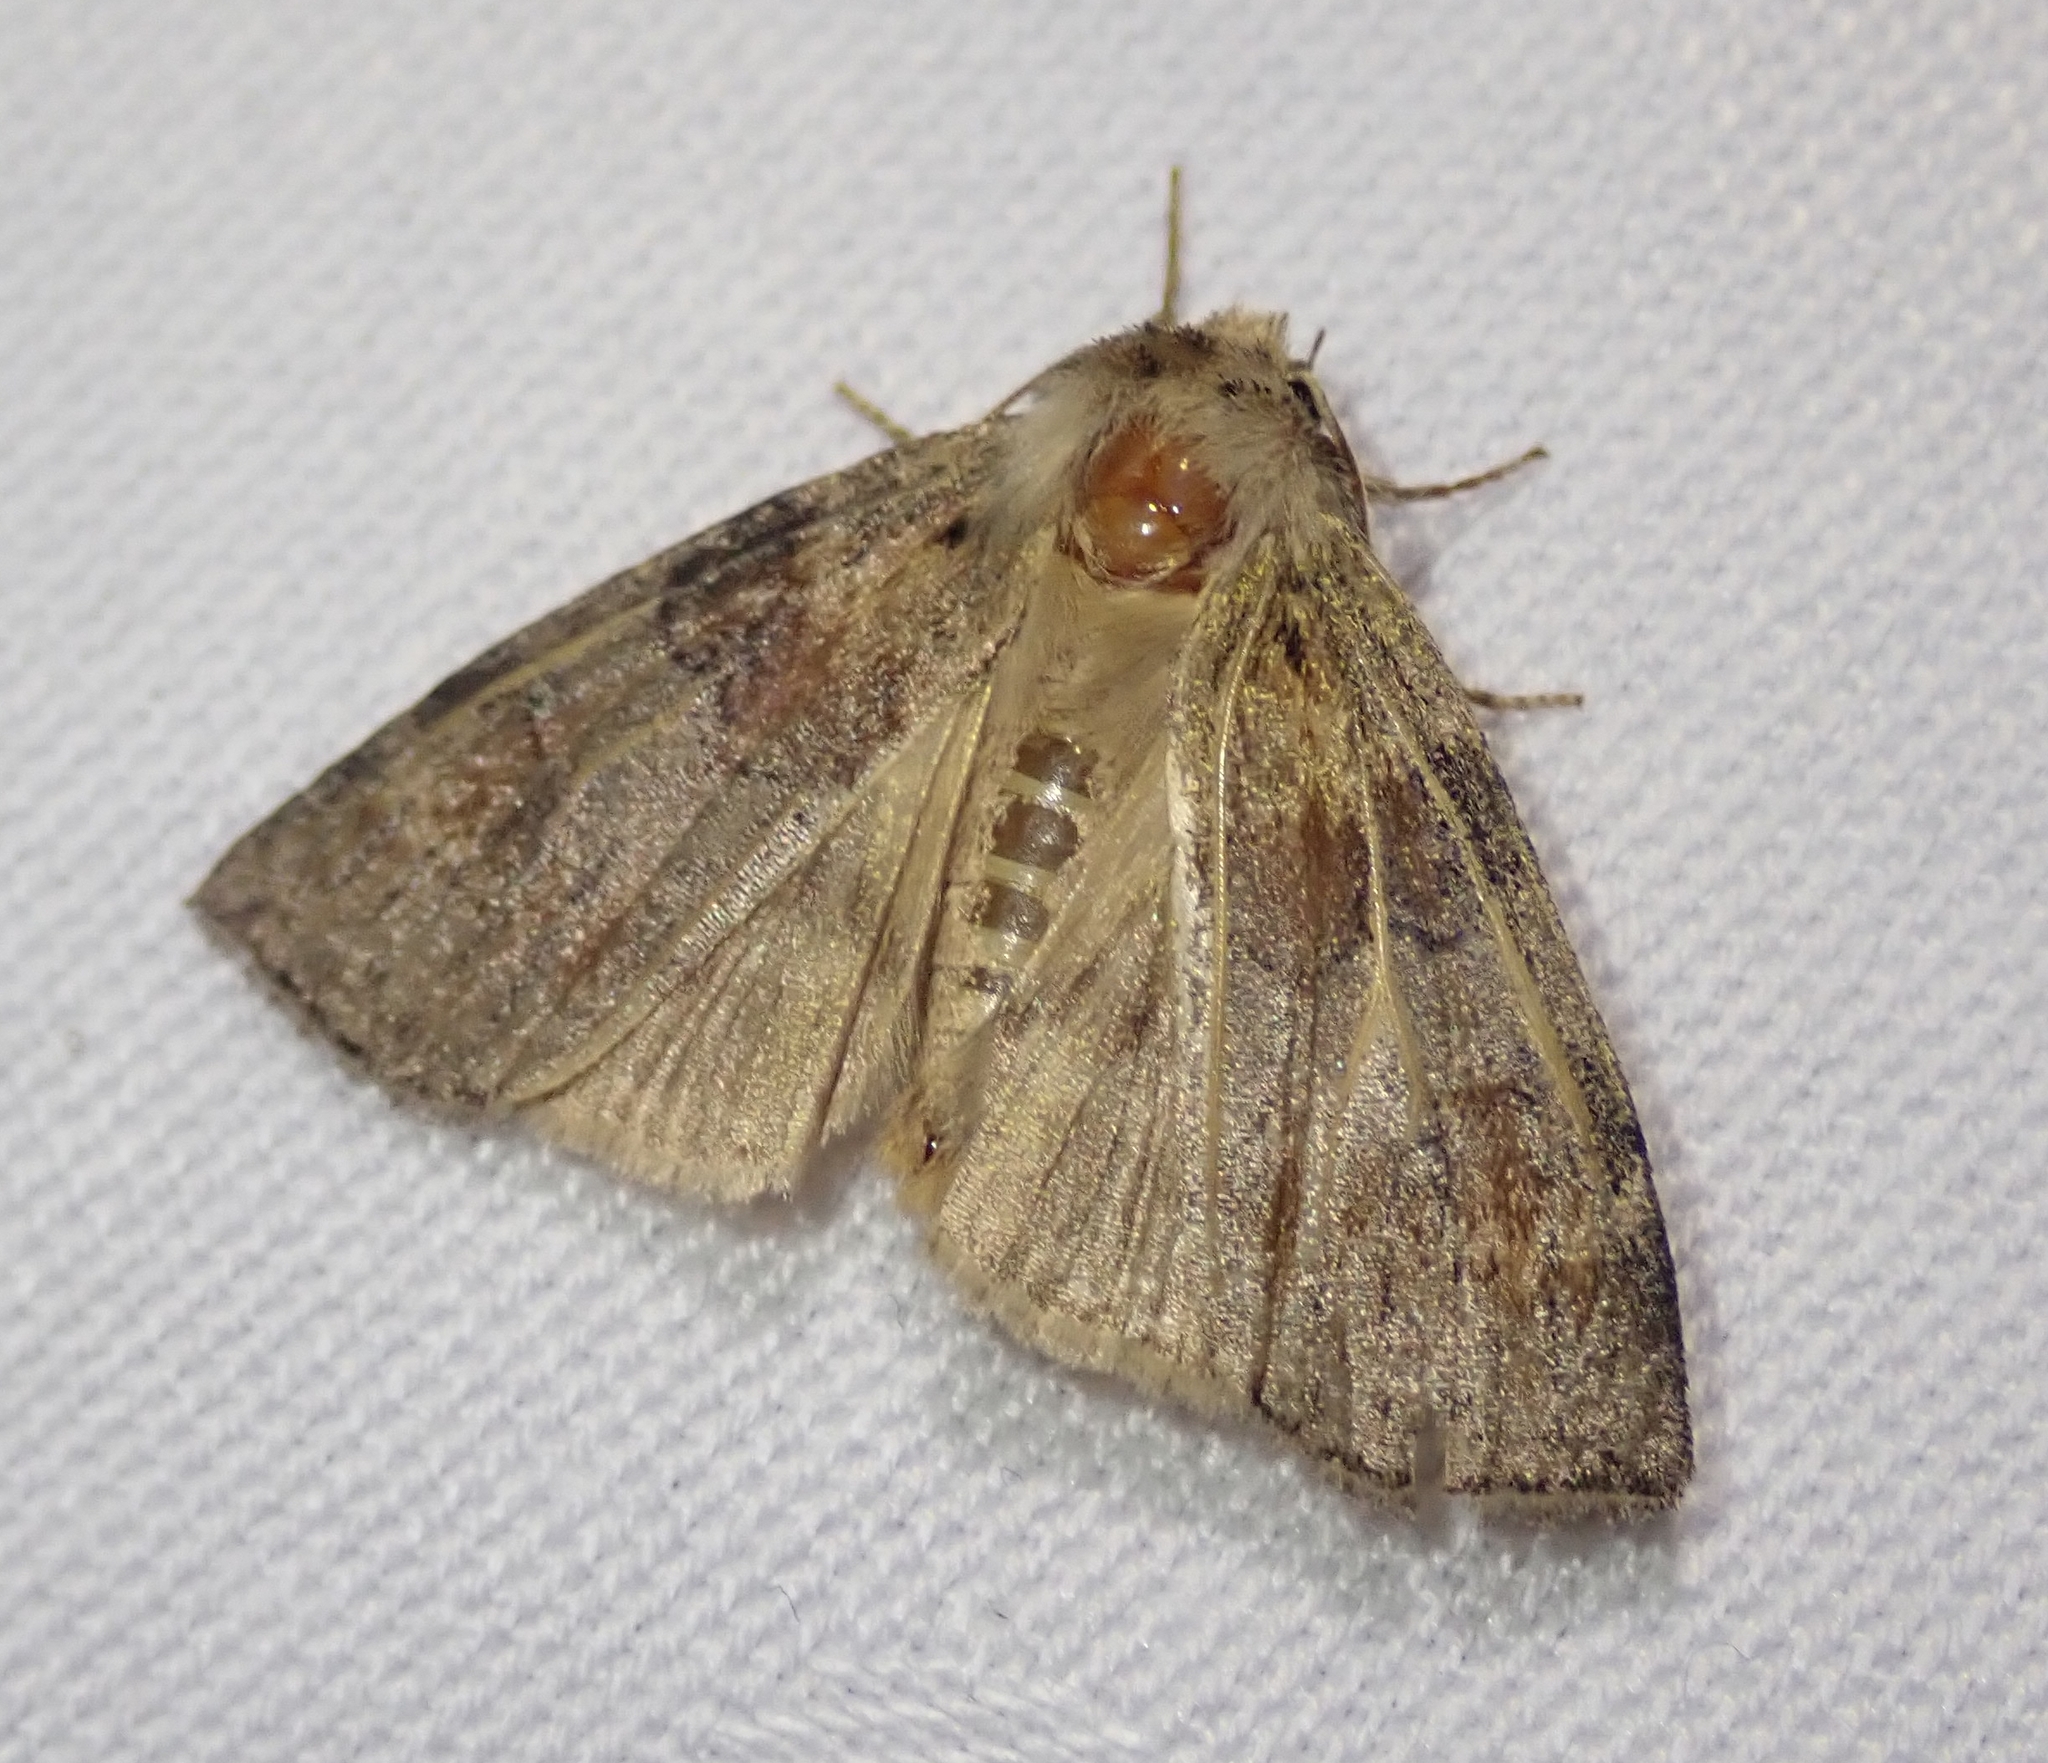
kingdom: Animalia
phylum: Arthropoda
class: Insecta
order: Lepidoptera
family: Drepanidae
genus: Cymatophorina
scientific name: Cymatophorina diluta
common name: Oak lutestring
